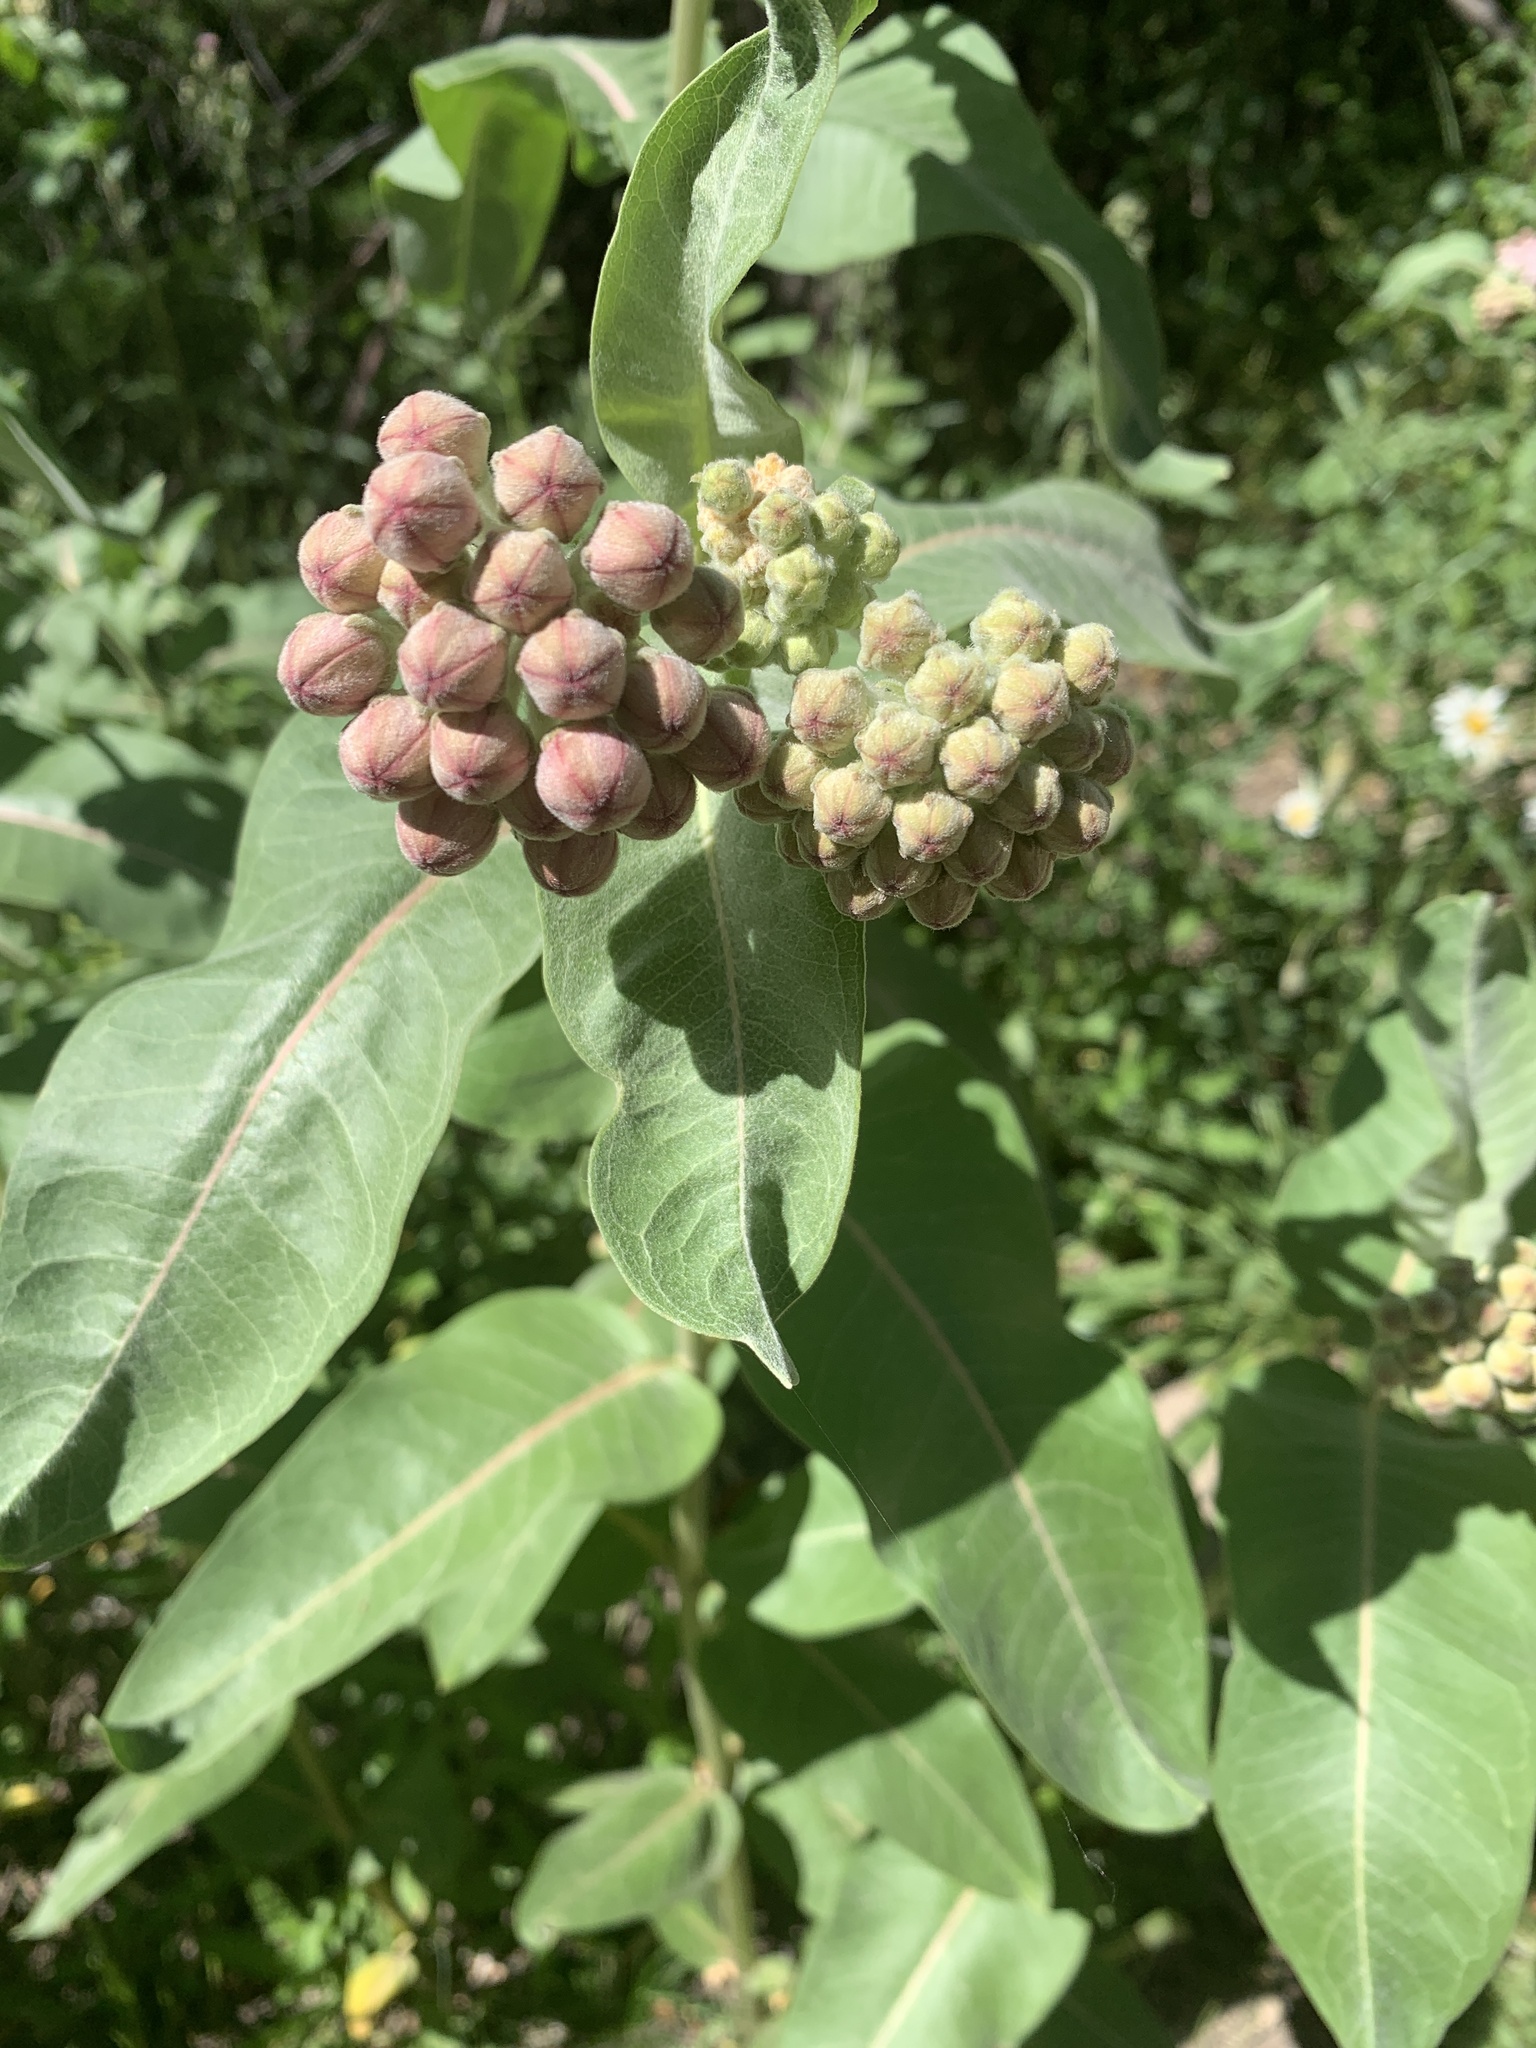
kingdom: Plantae
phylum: Tracheophyta
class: Magnoliopsida
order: Gentianales
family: Apocynaceae
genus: Asclepias
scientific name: Asclepias speciosa
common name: Showy milkweed
